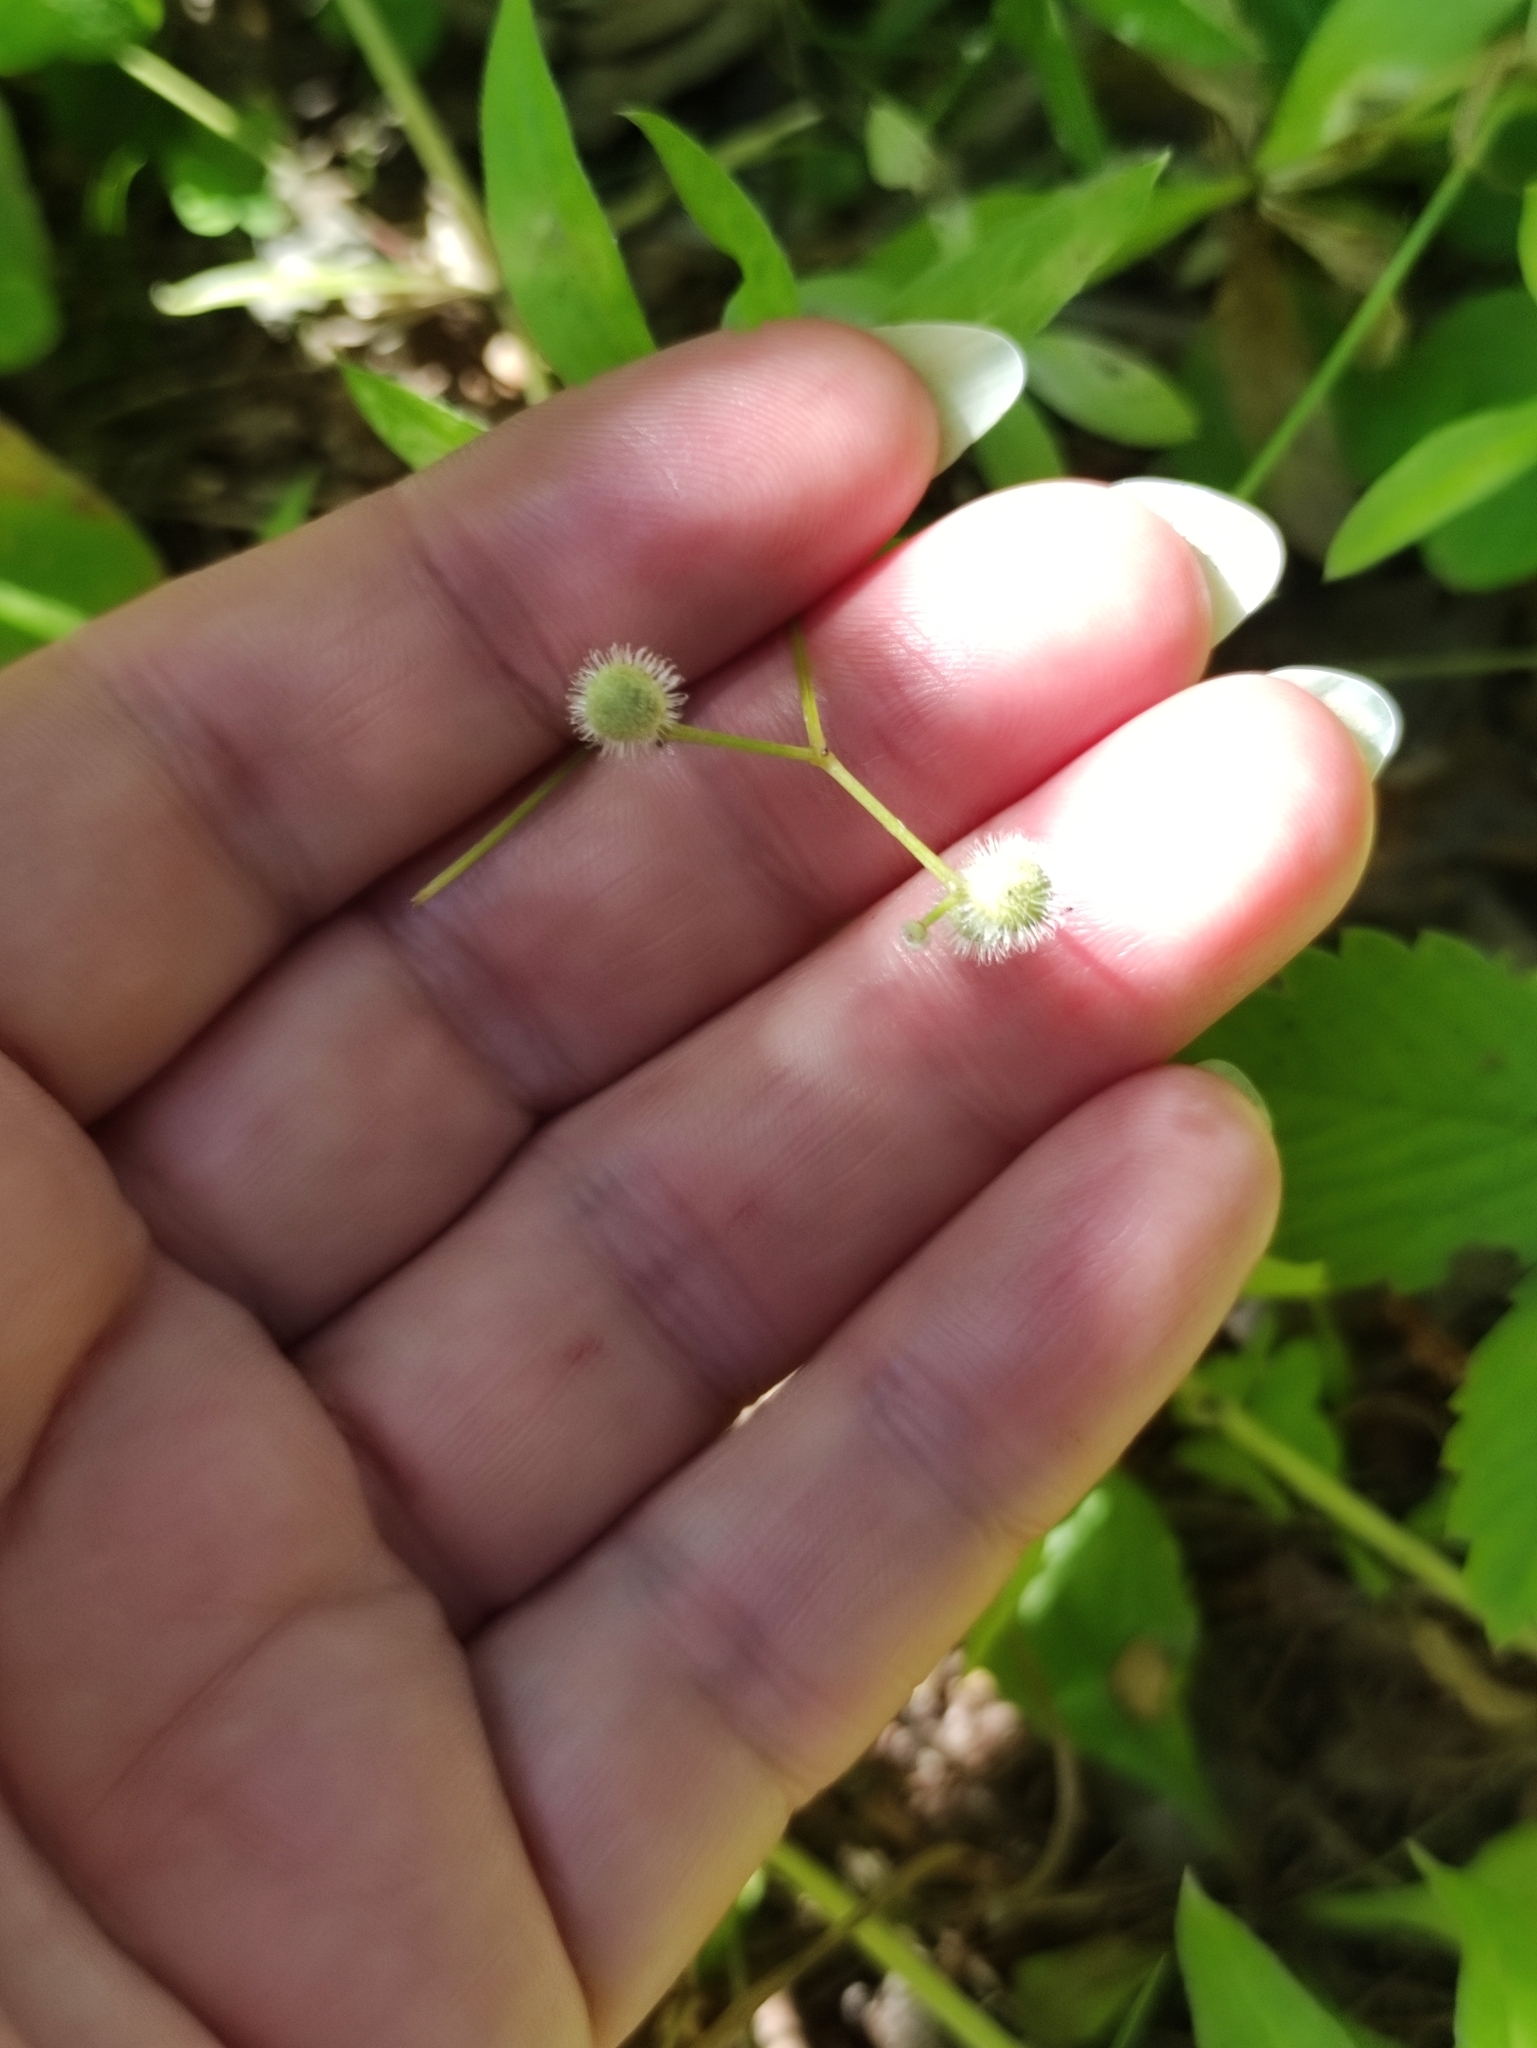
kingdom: Plantae
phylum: Tracheophyta
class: Magnoliopsida
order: Gentianales
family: Rubiaceae
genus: Galium
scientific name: Galium odoratum
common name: Sweet woodruff
